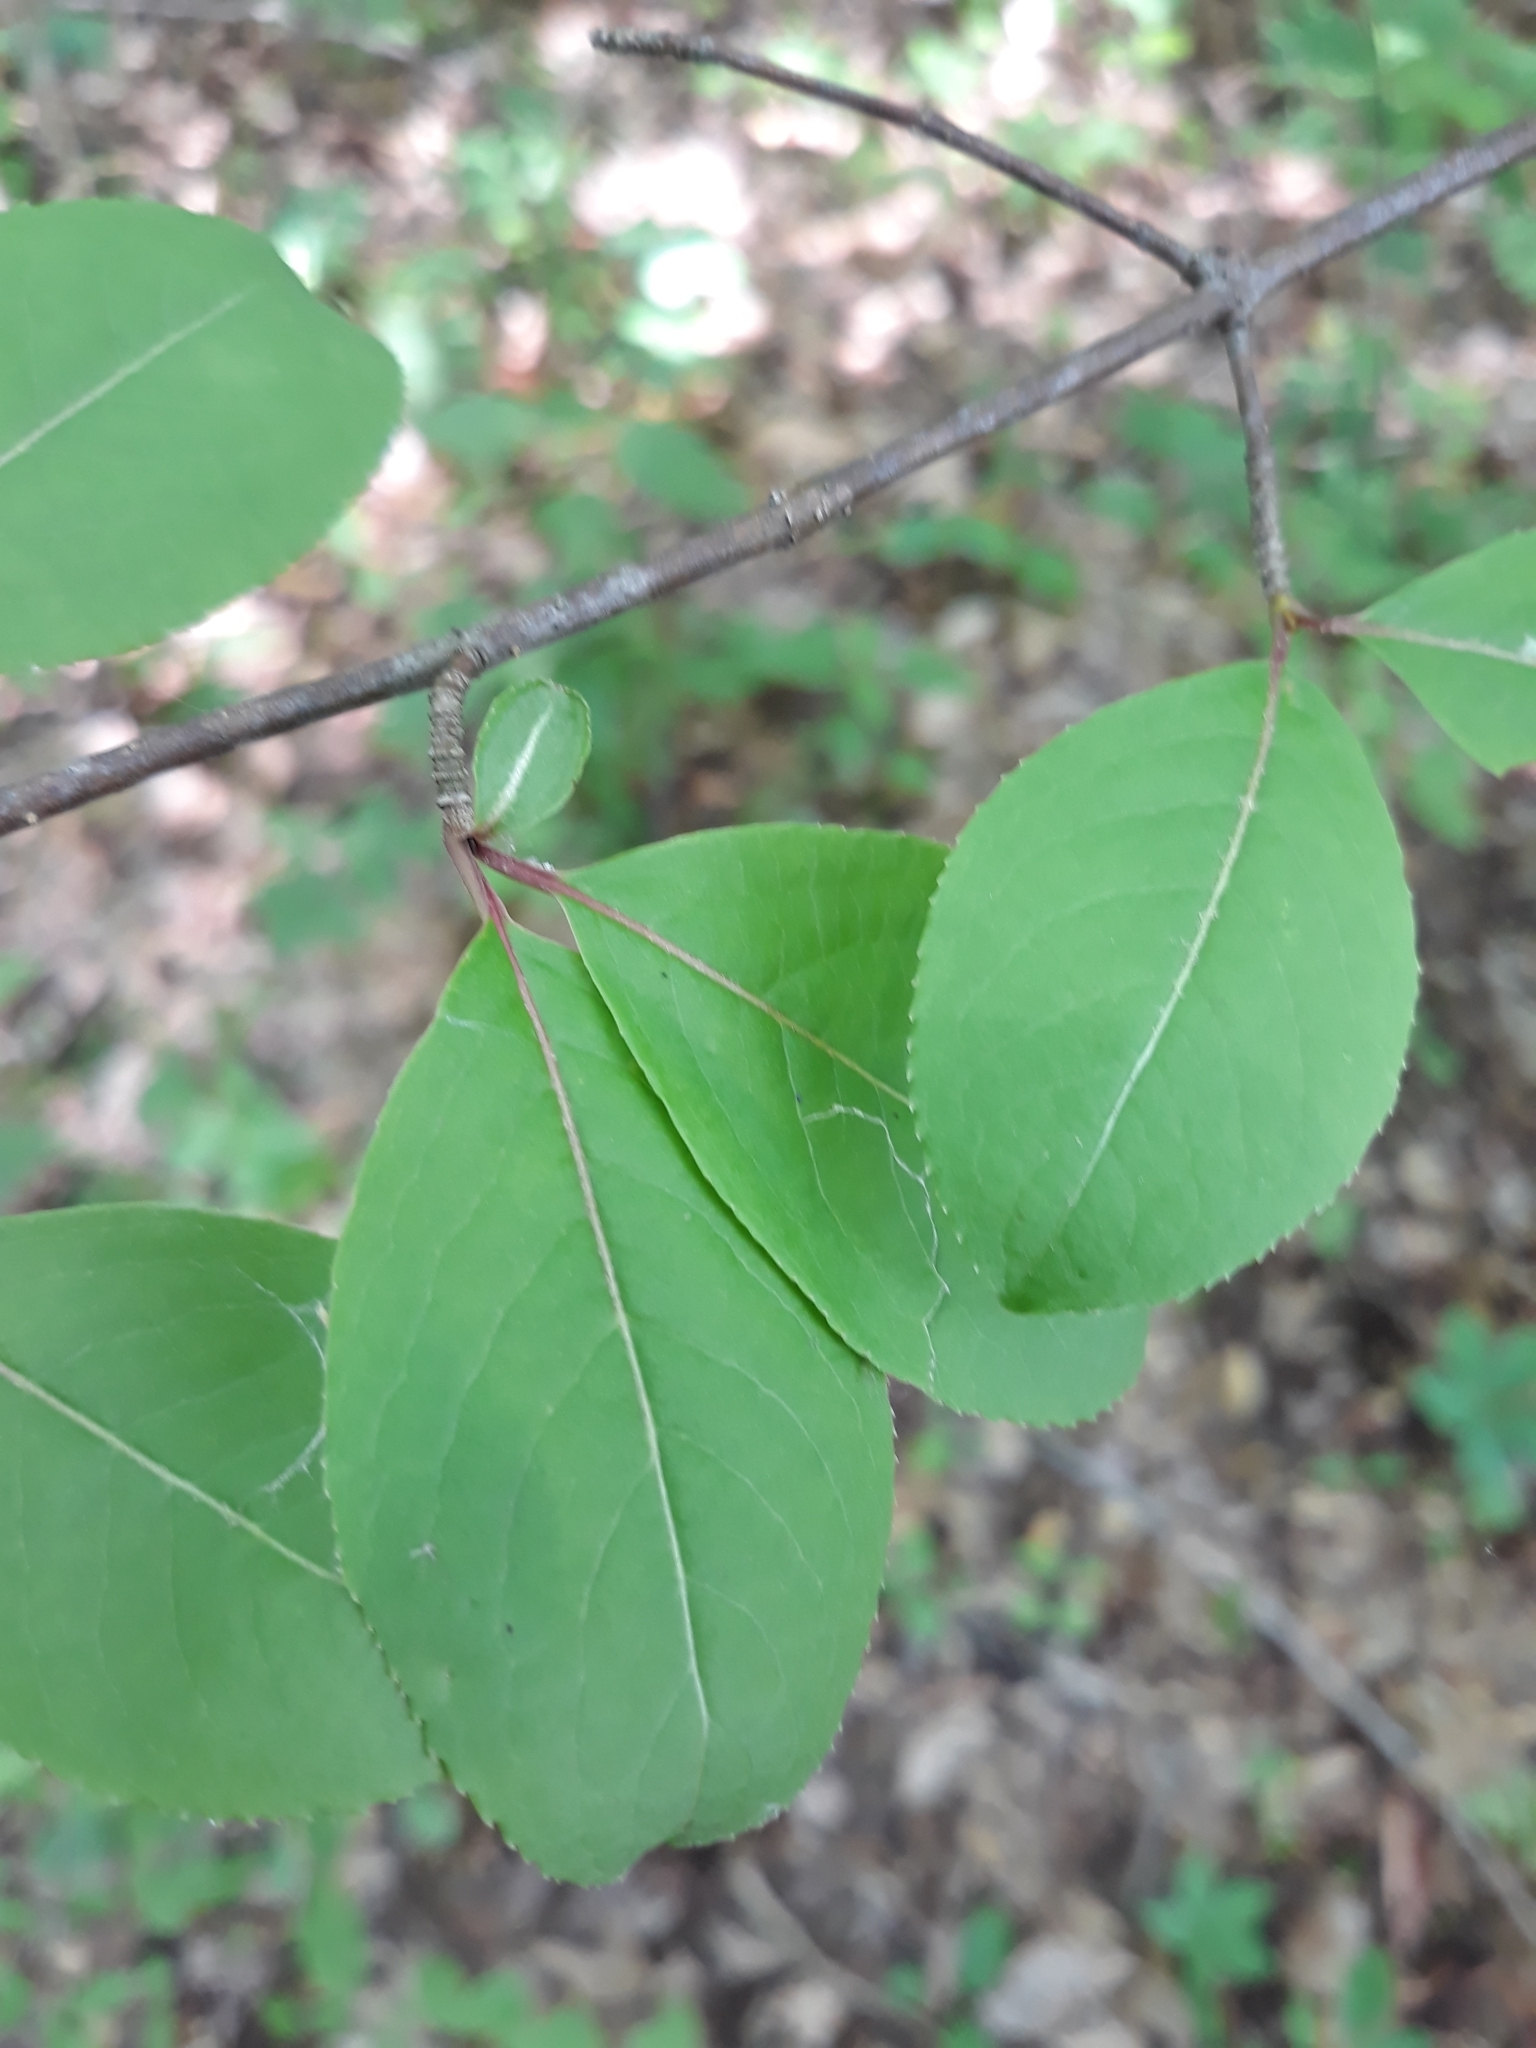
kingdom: Plantae
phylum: Tracheophyta
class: Magnoliopsida
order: Dipsacales
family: Viburnaceae
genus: Viburnum
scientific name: Viburnum prunifolium
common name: Black haw
